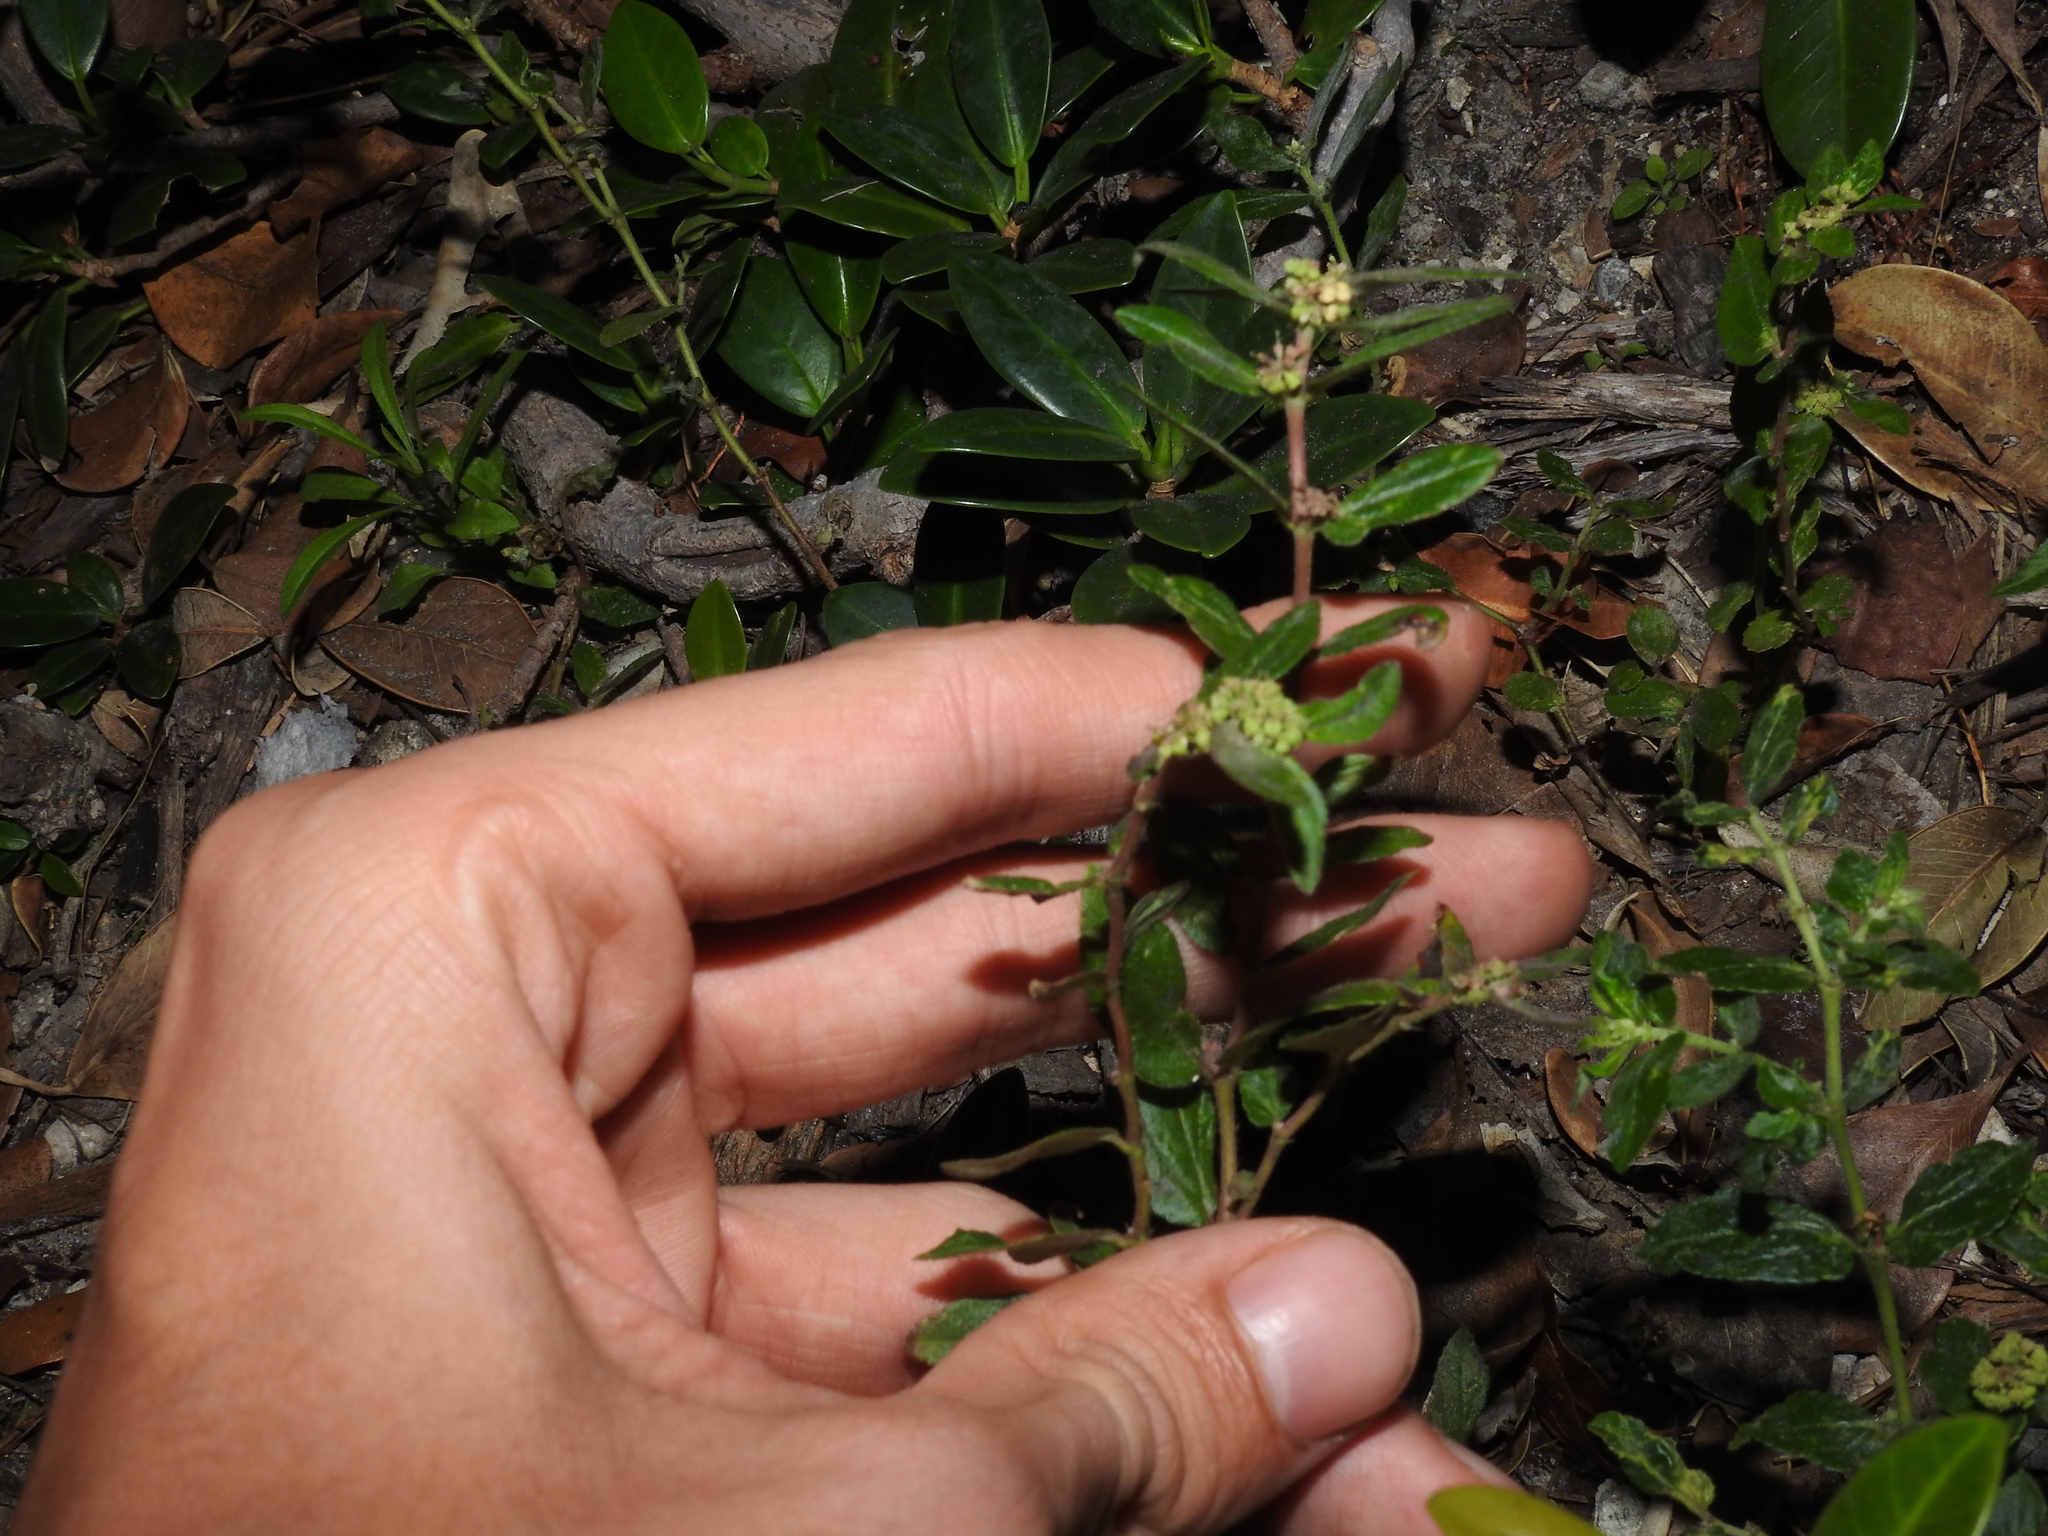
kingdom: Plantae
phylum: Tracheophyta
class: Magnoliopsida
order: Malpighiales
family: Euphorbiaceae
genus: Euphorbia
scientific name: Euphorbia hirta
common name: Pillpod sandmat
